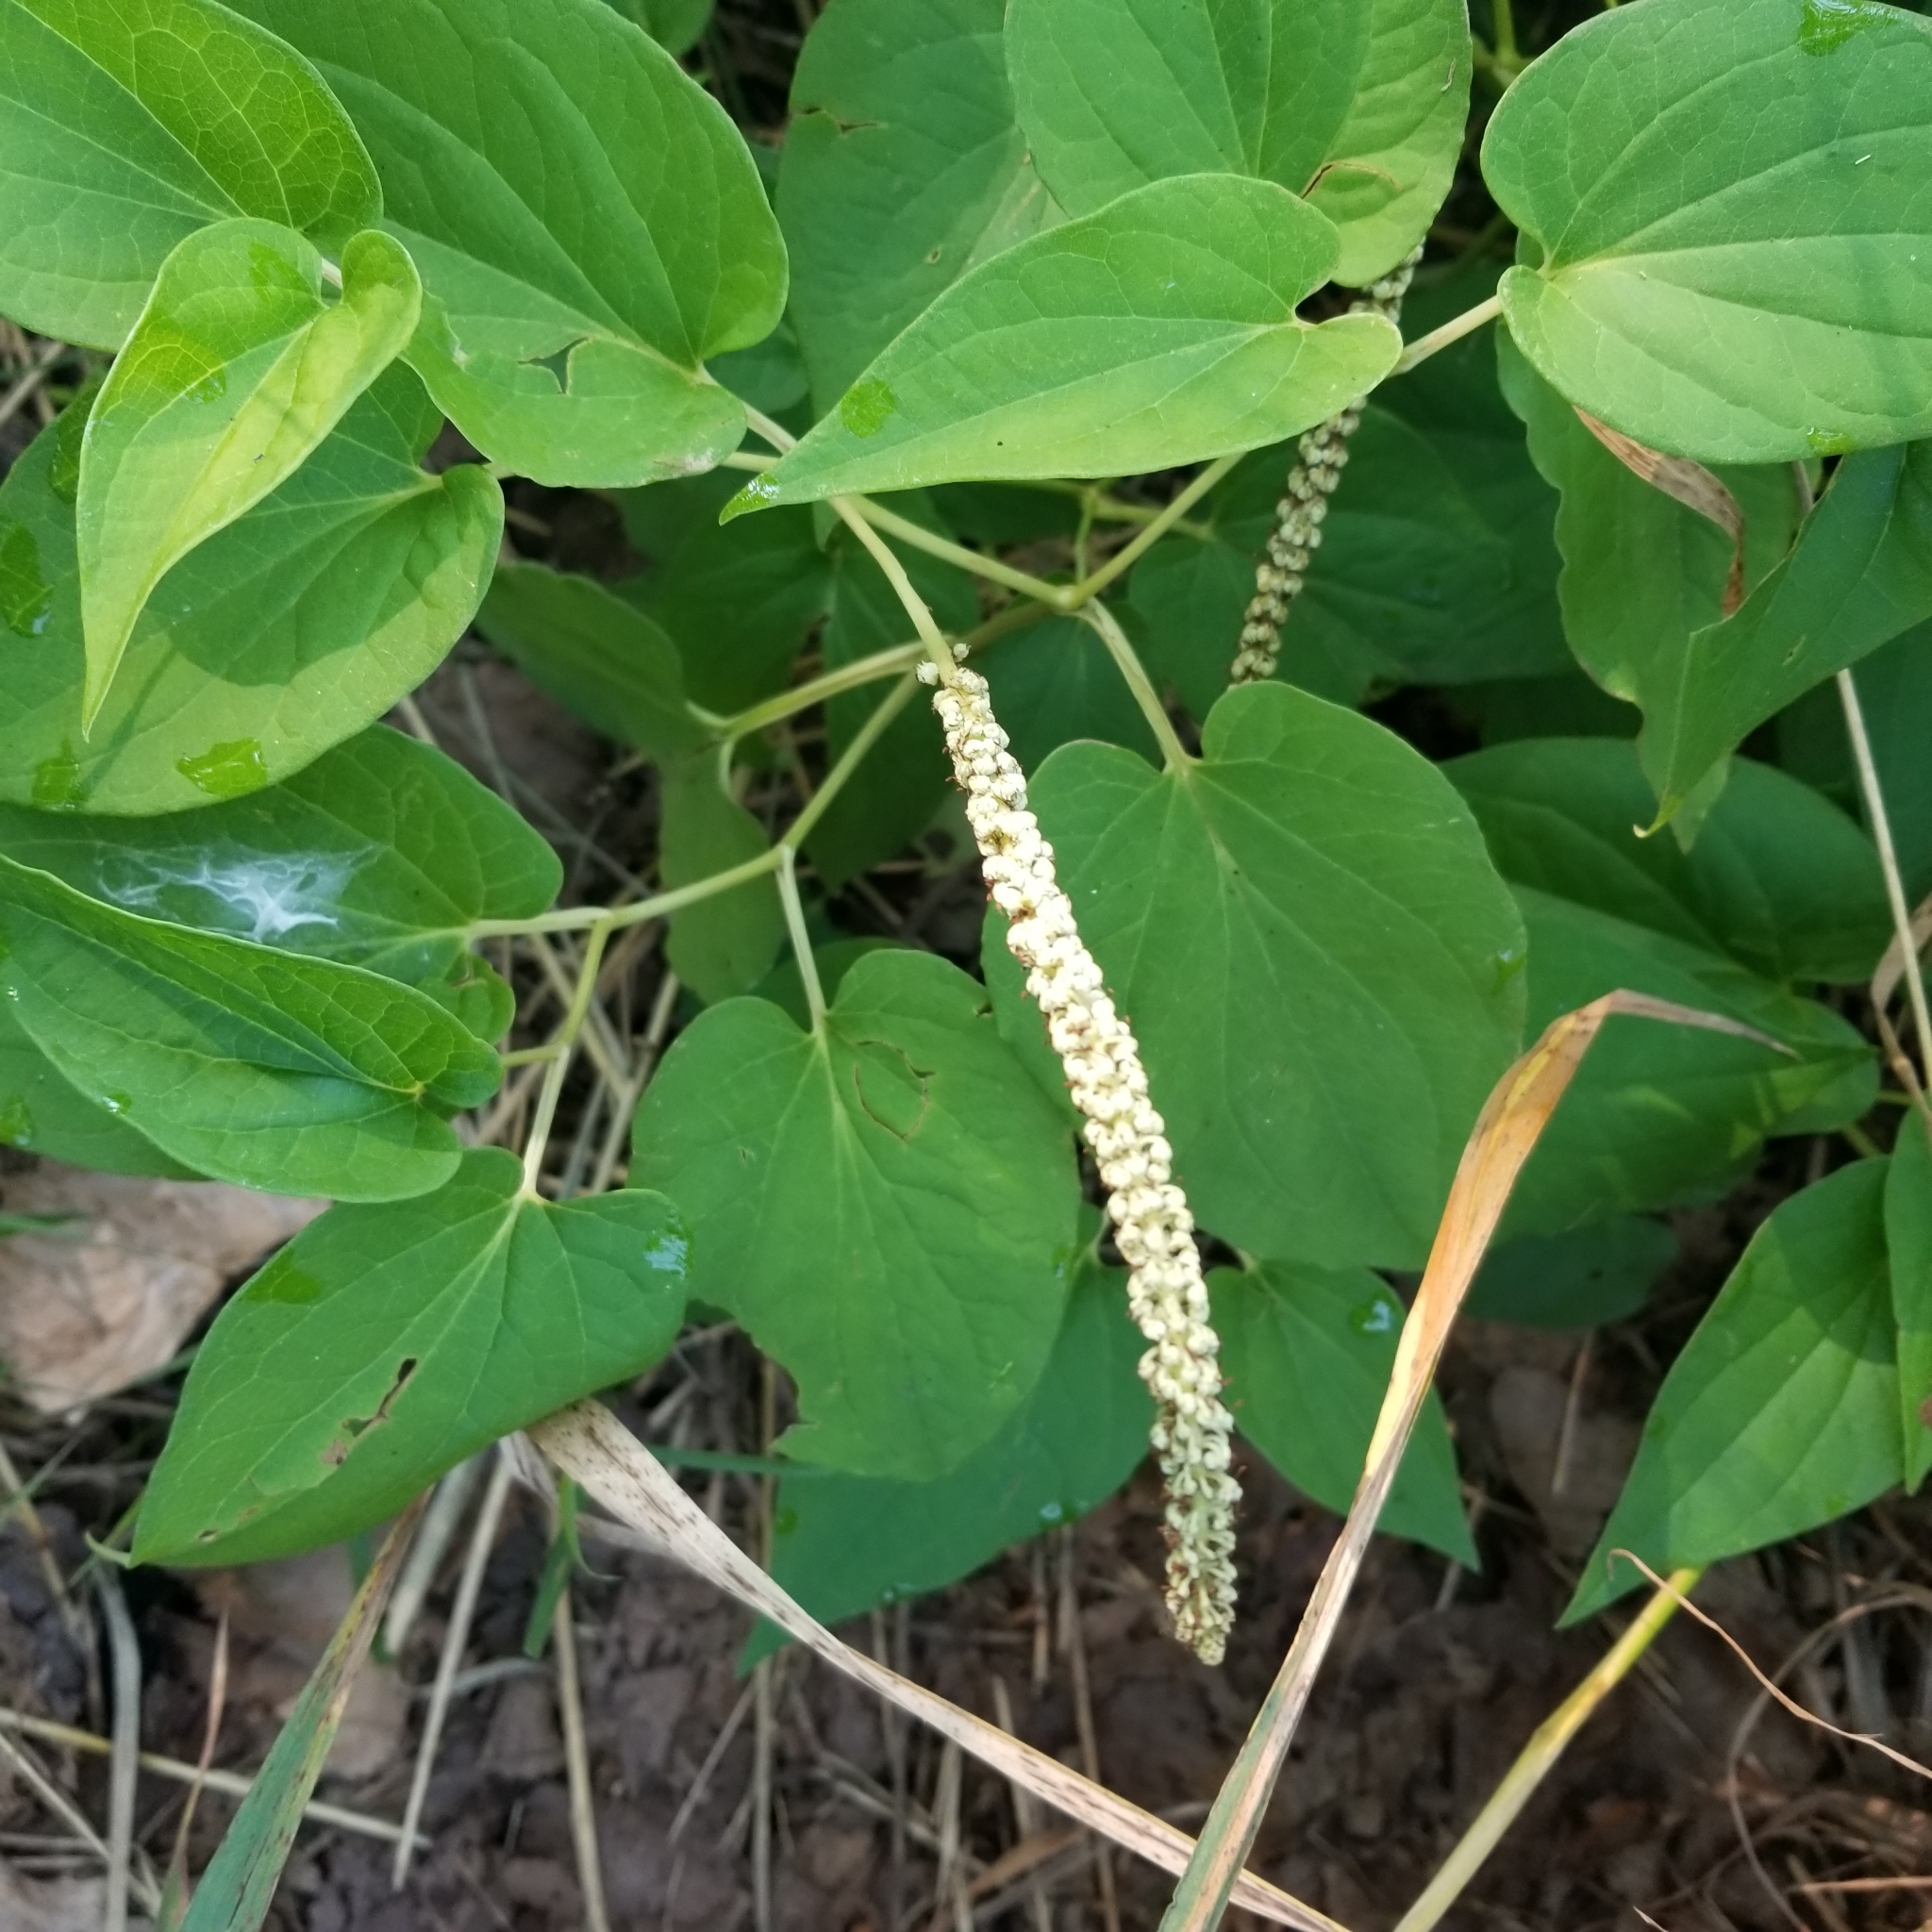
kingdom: Plantae
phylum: Tracheophyta
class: Magnoliopsida
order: Piperales
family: Saururaceae
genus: Saururus
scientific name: Saururus cernuus
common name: Lizard's-tail
